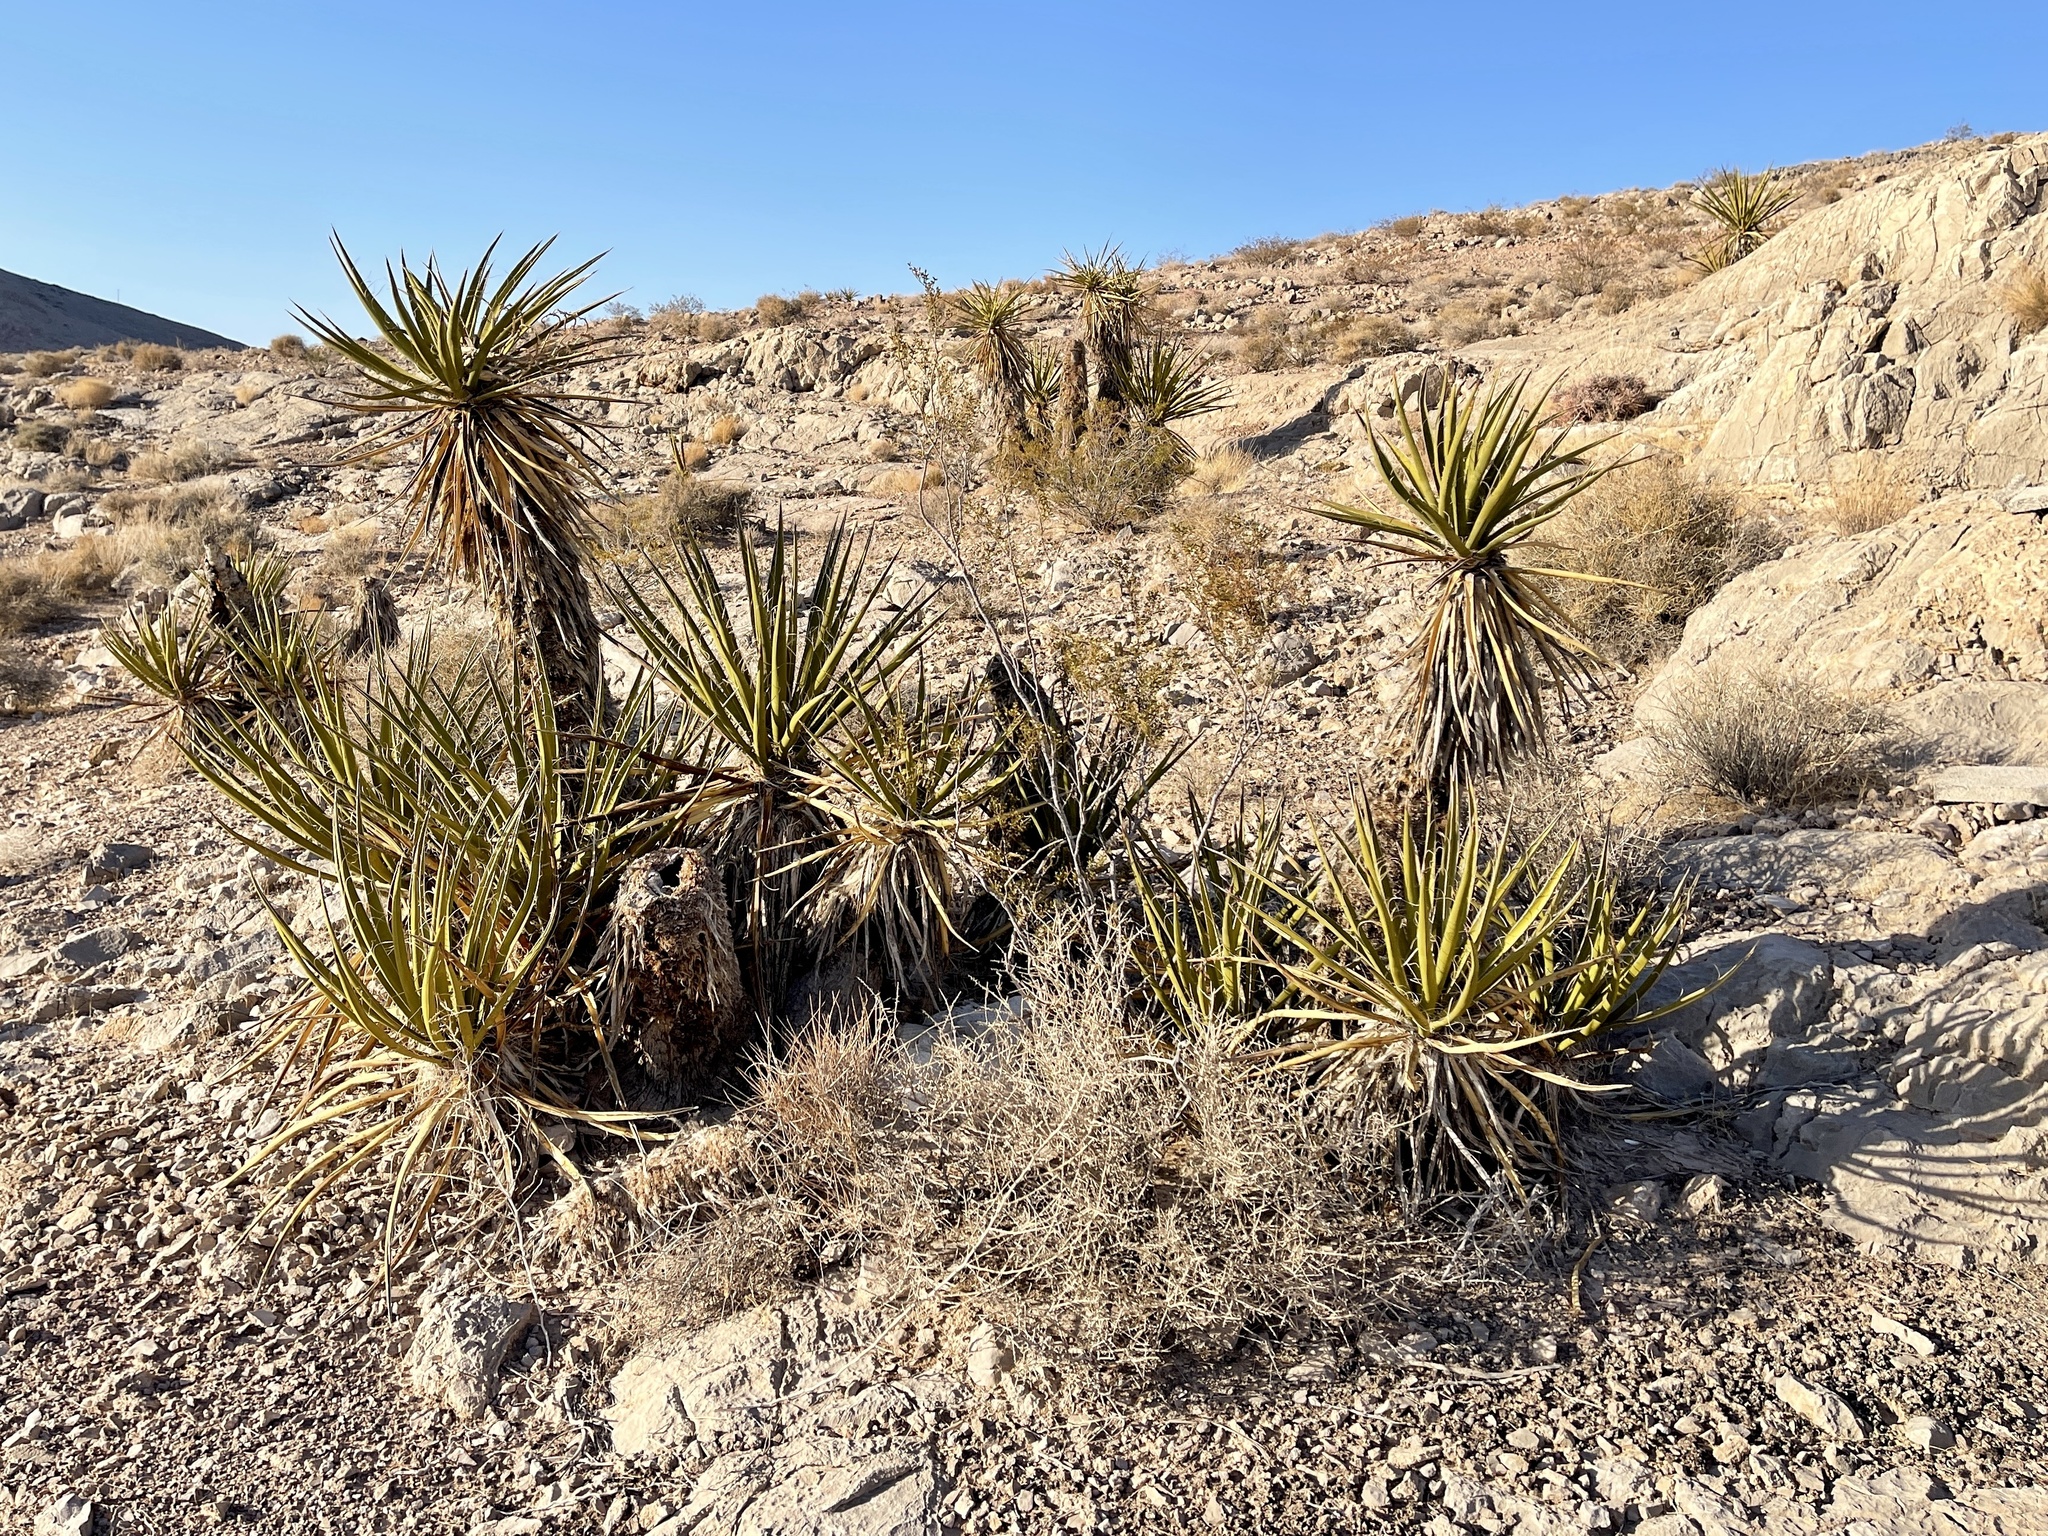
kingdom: Plantae
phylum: Tracheophyta
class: Liliopsida
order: Asparagales
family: Asparagaceae
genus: Yucca
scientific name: Yucca schidigera
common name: Mojave yucca
